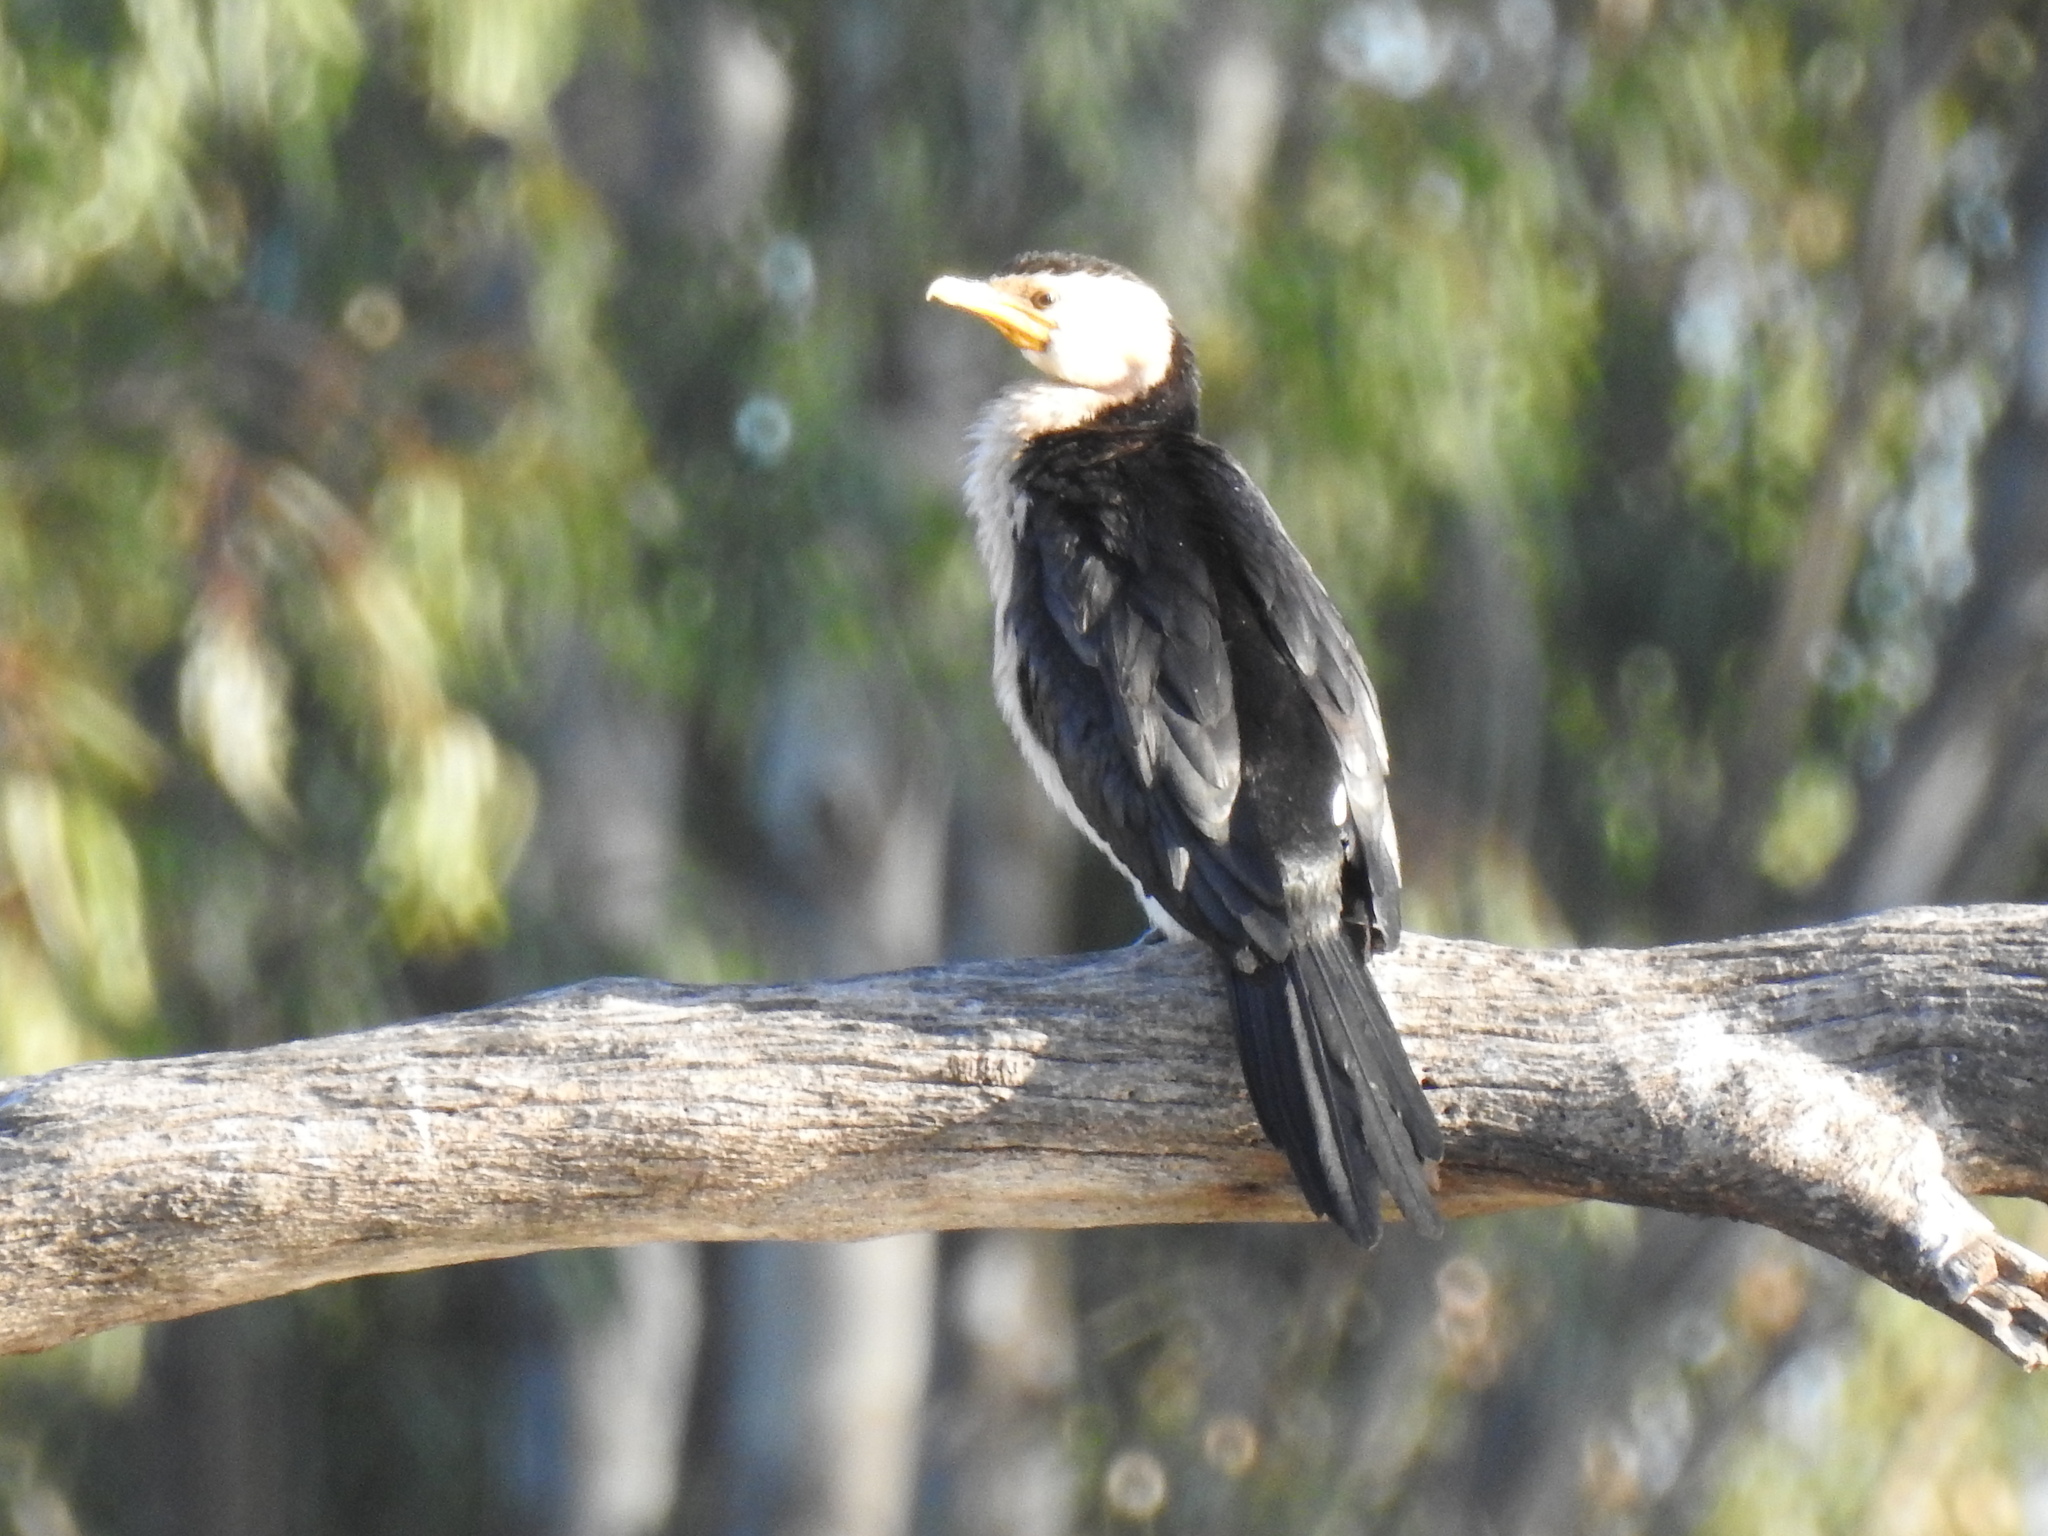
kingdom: Animalia
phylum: Chordata
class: Aves
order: Suliformes
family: Phalacrocoracidae
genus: Microcarbo
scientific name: Microcarbo melanoleucos
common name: Little pied cormorant
